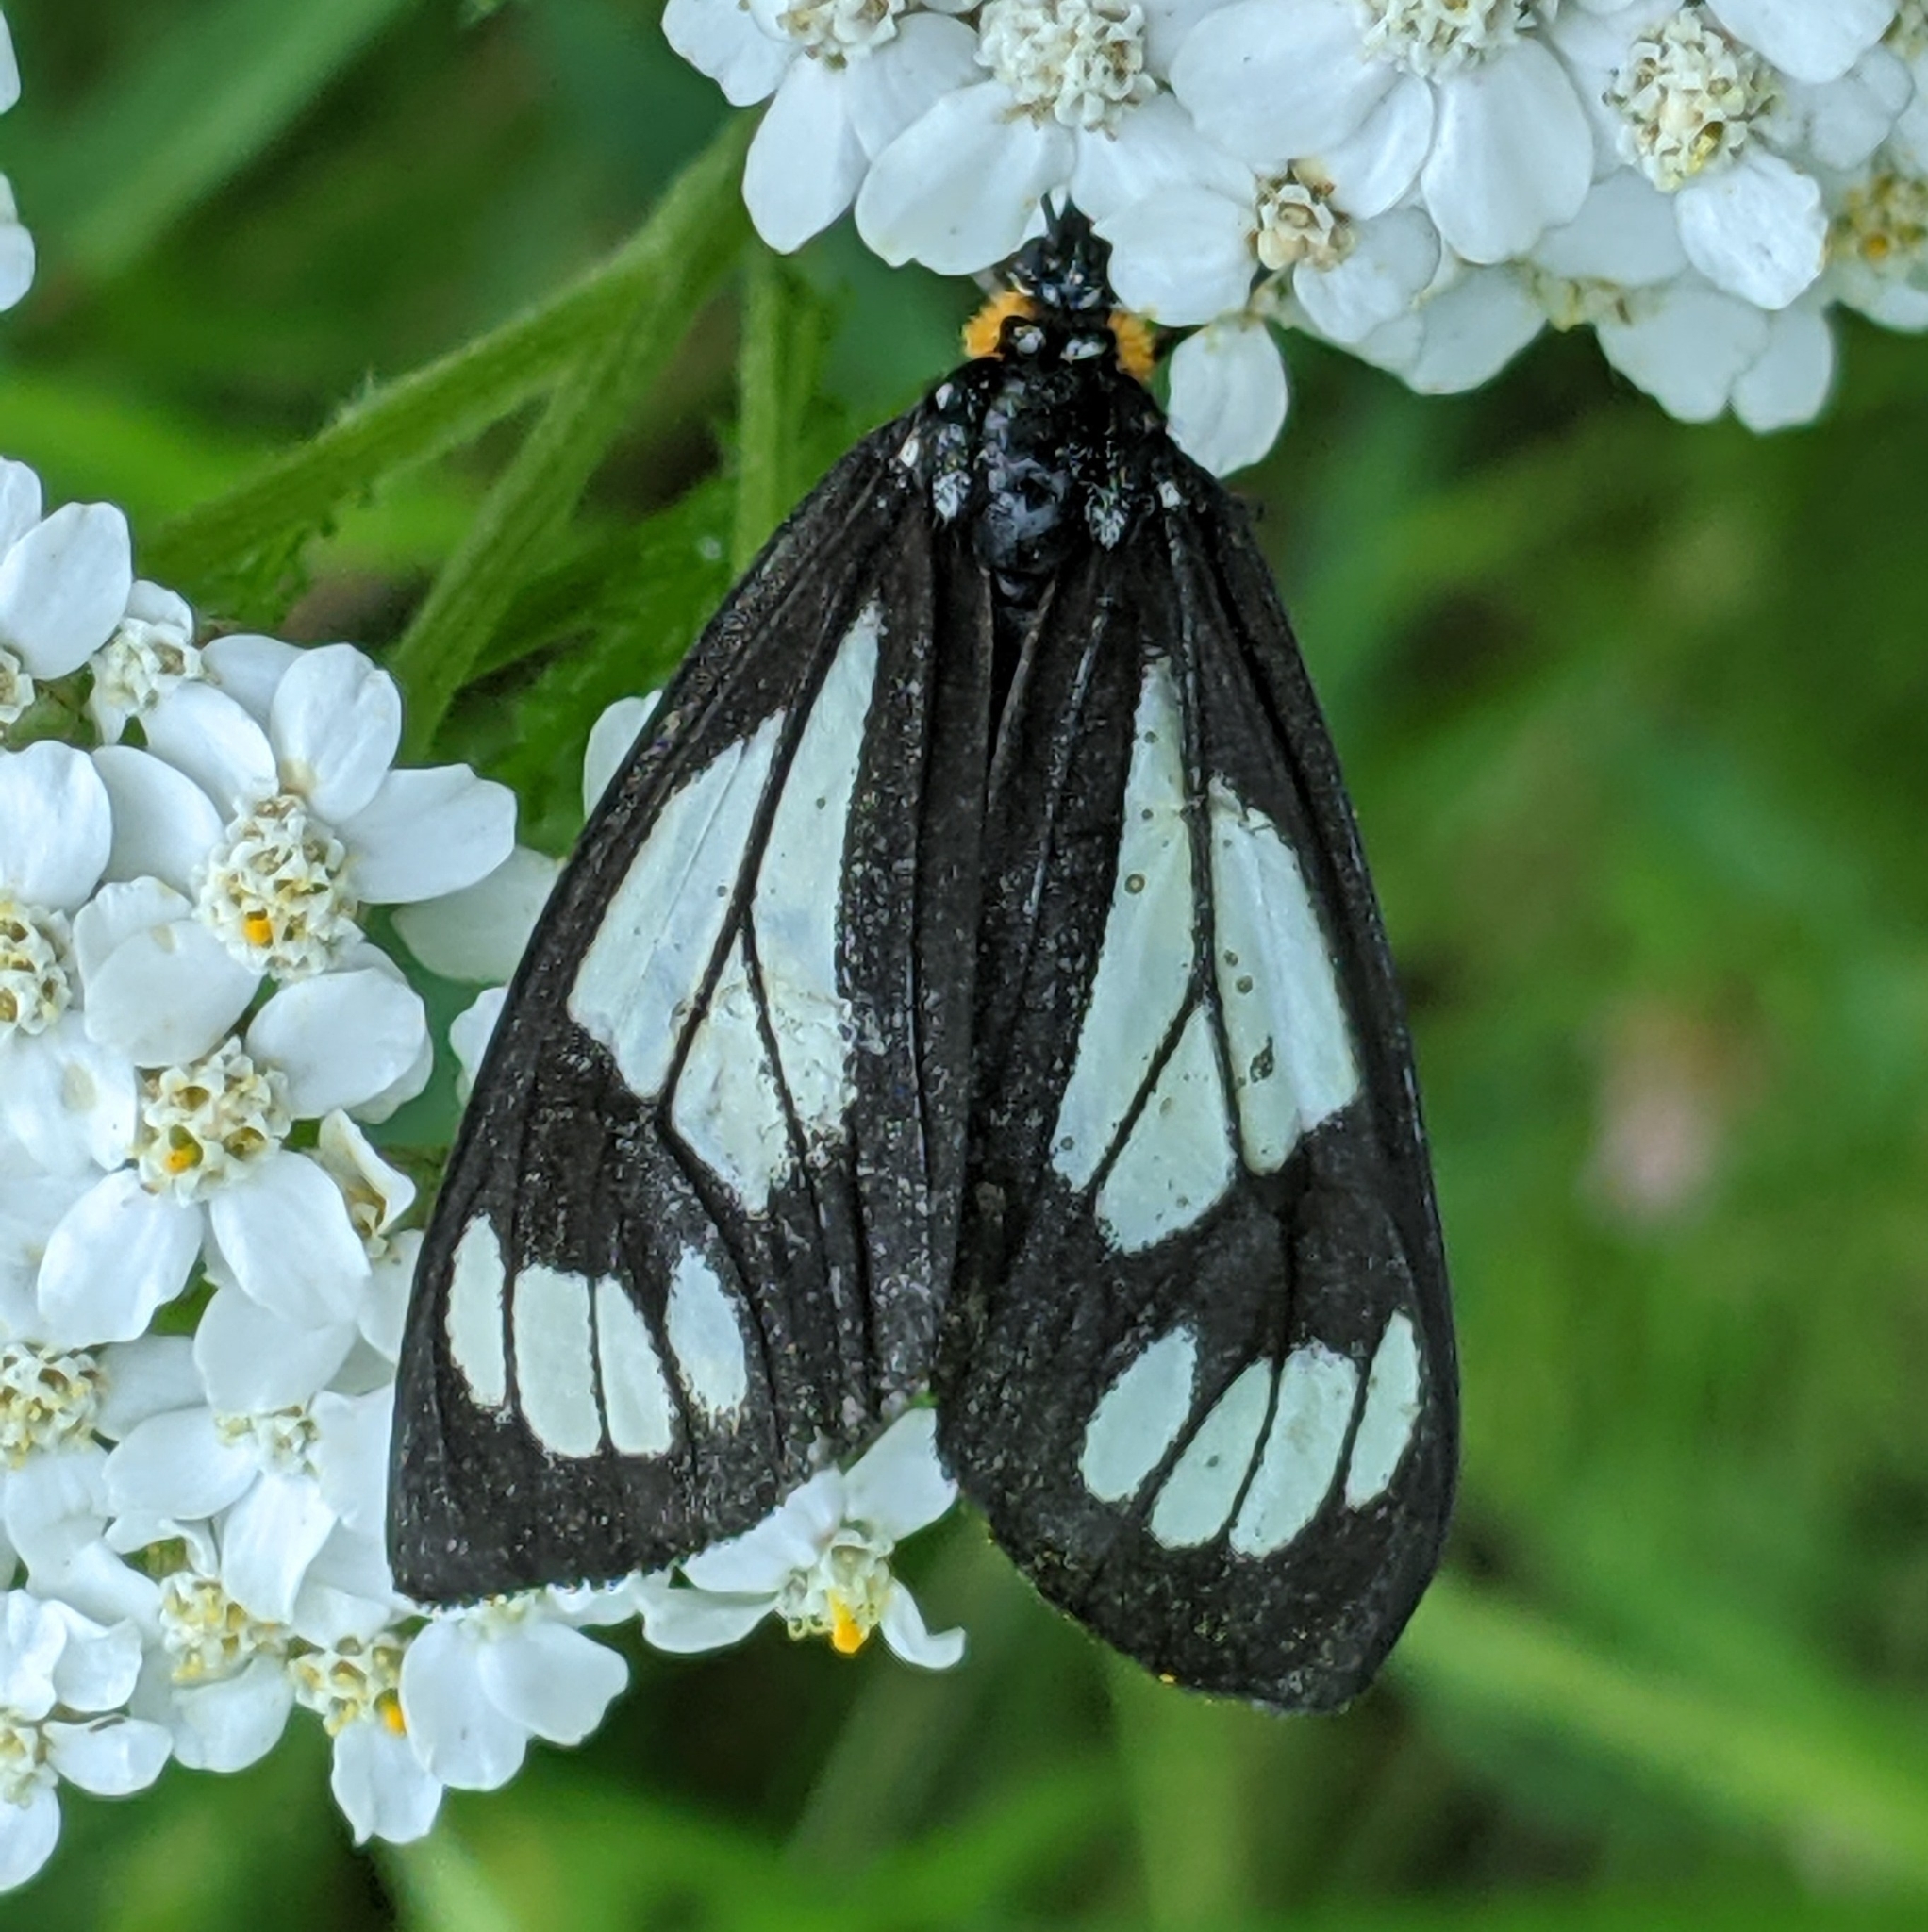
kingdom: Animalia
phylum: Arthropoda
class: Insecta
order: Lepidoptera
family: Erebidae
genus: Gnophaela
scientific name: Gnophaela vermiculata
